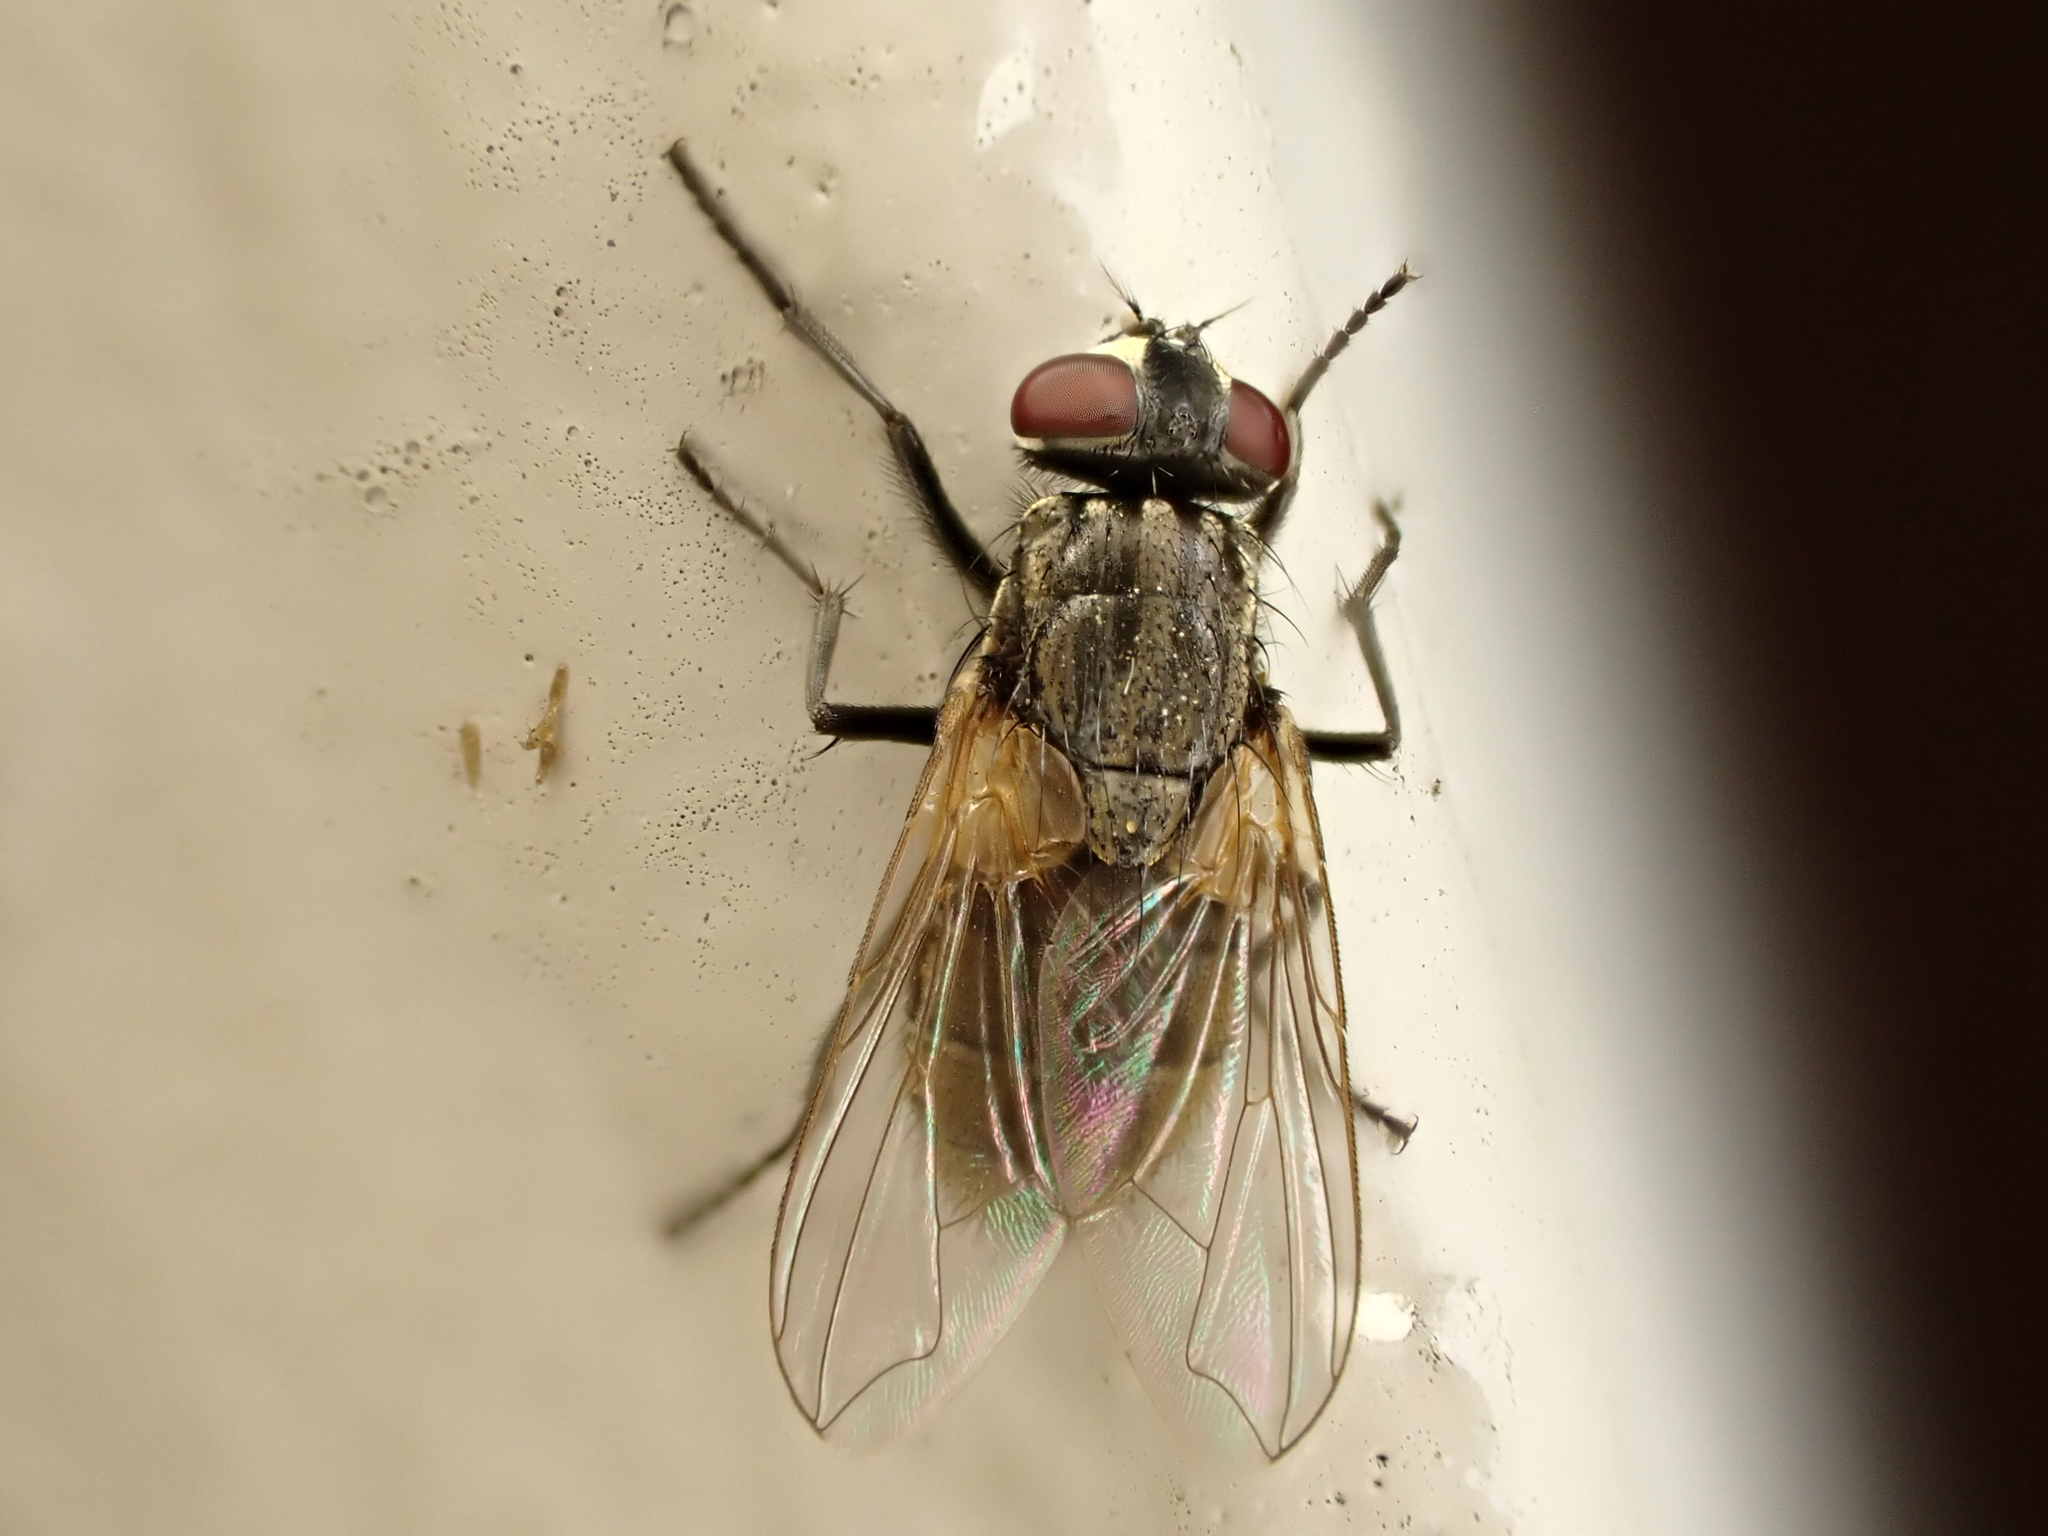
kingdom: Animalia
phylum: Arthropoda
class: Insecta
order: Diptera
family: Muscidae
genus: Musca
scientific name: Musca domestica
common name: House fly
